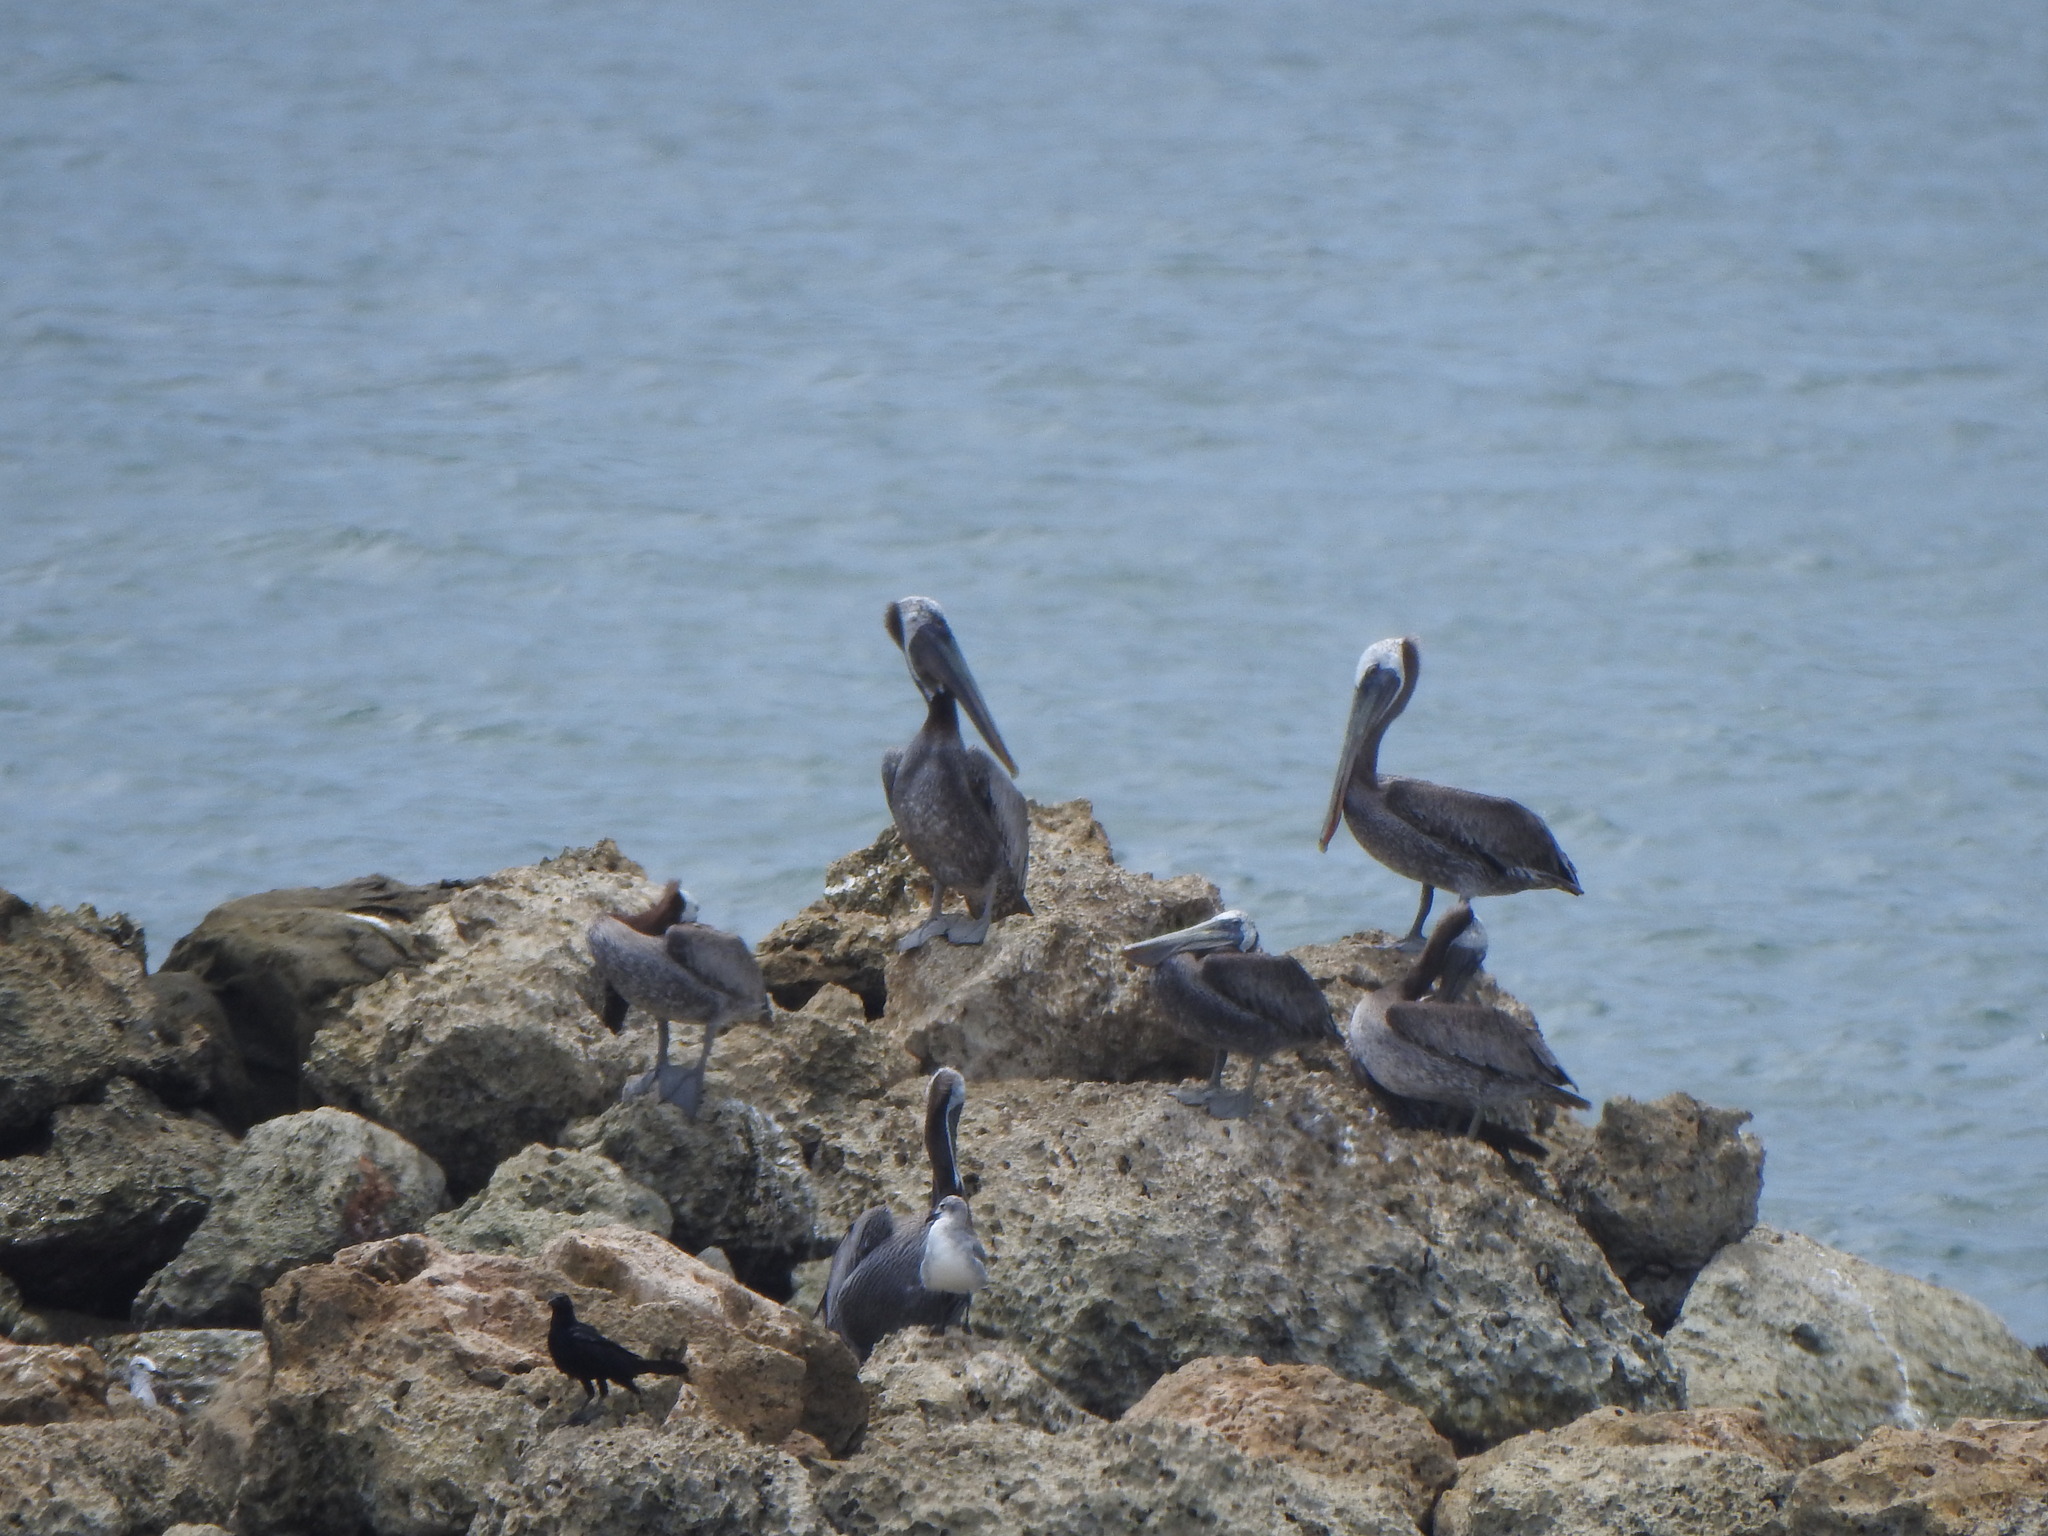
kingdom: Animalia
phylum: Chordata
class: Aves
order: Pelecaniformes
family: Pelecanidae
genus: Pelecanus
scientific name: Pelecanus occidentalis
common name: Brown pelican
